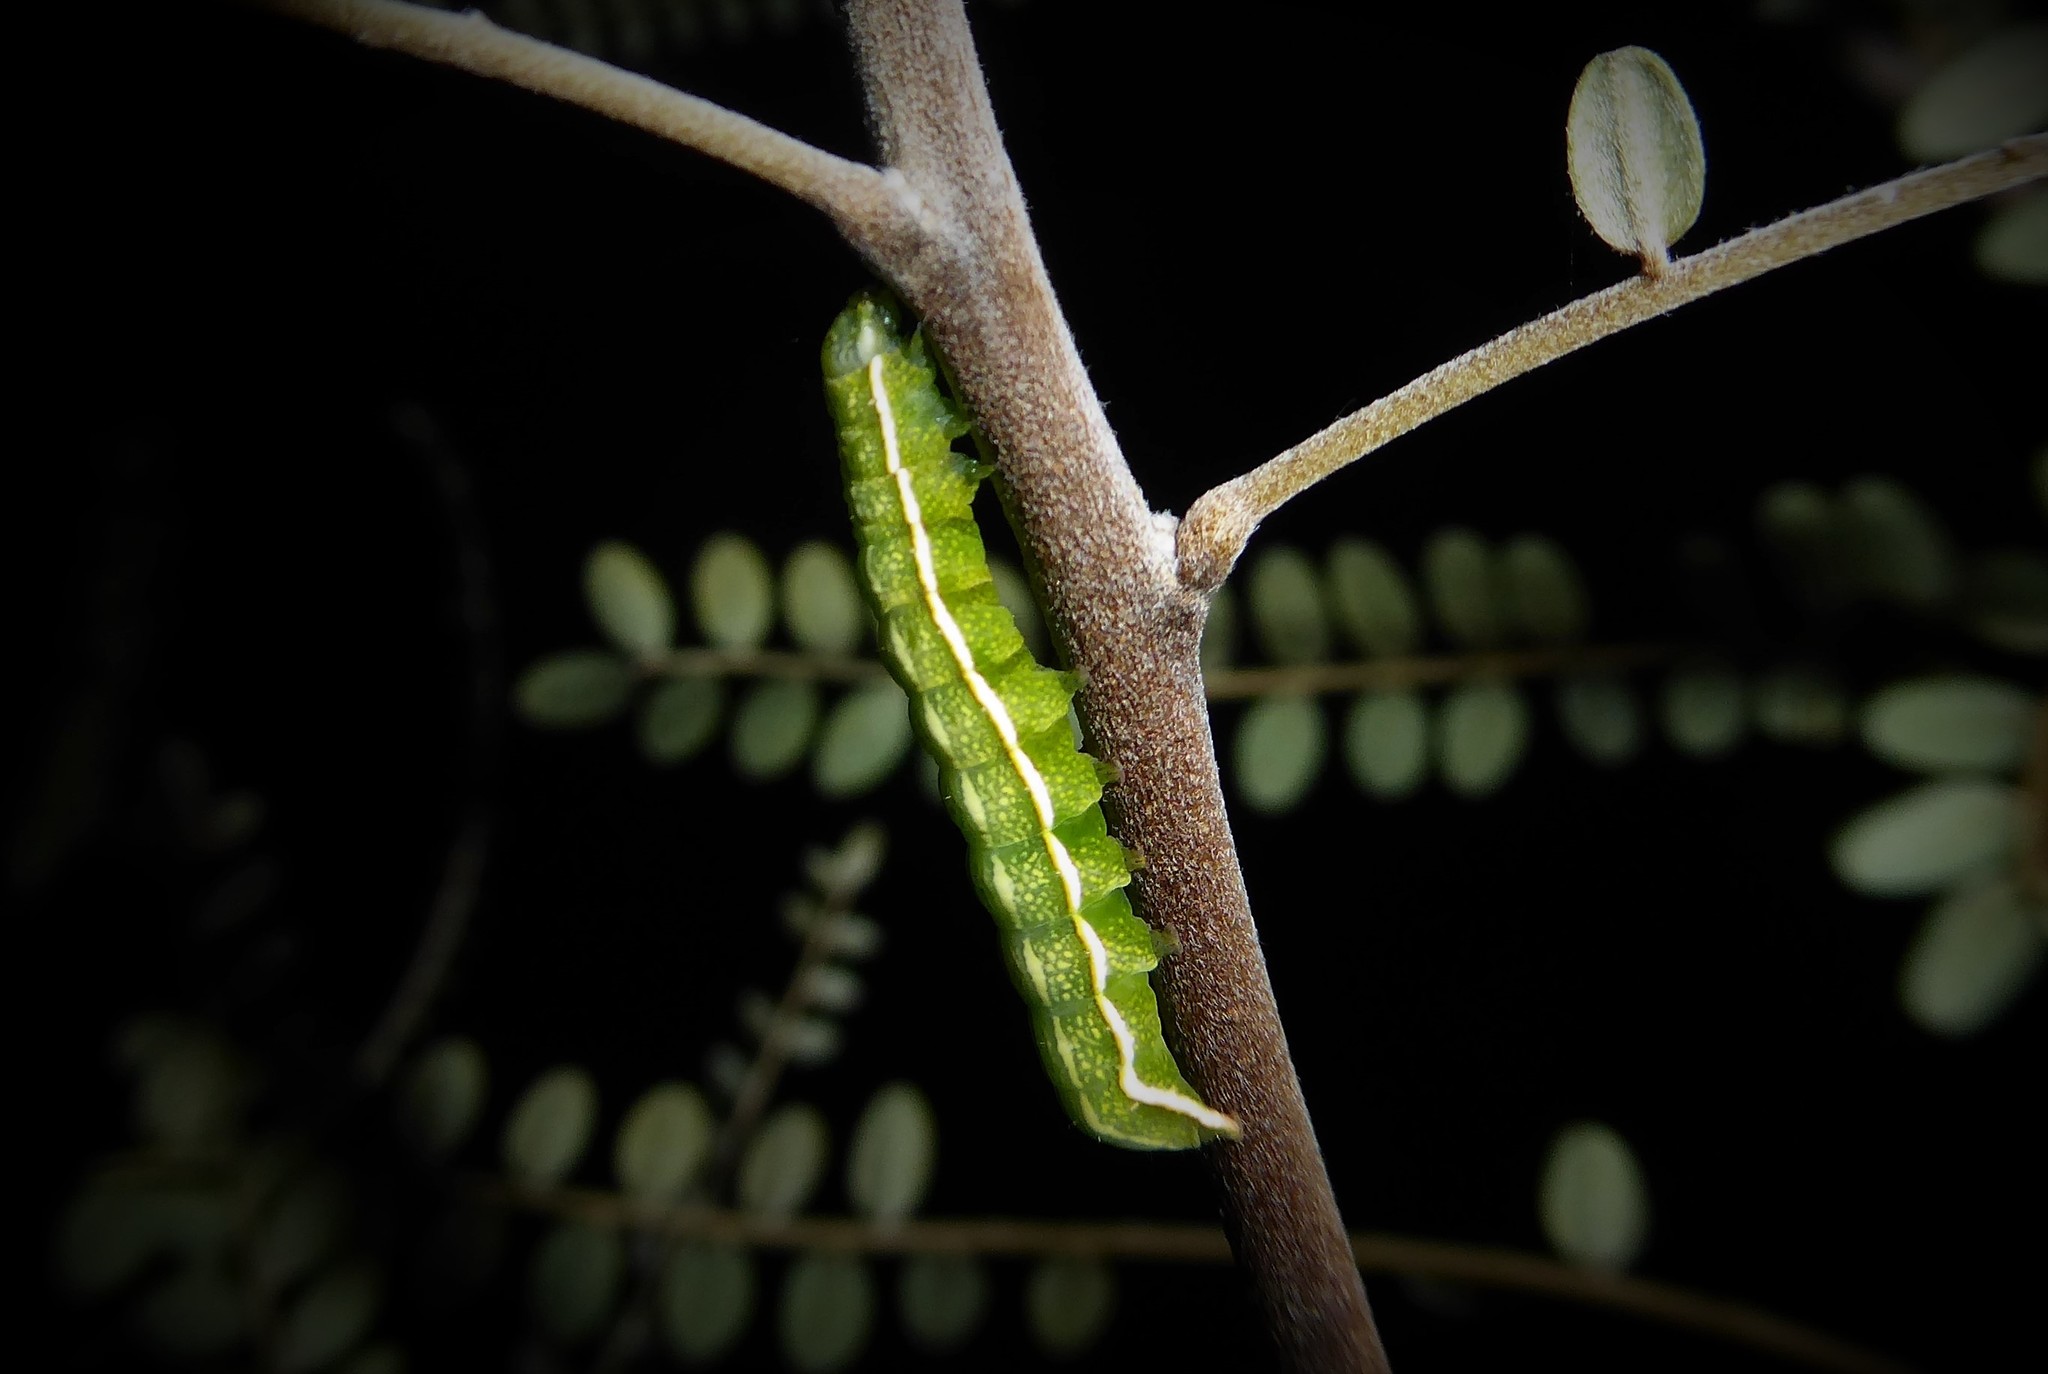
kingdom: Animalia
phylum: Arthropoda
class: Insecta
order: Lepidoptera
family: Noctuidae
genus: Meterana
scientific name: Meterana decorata
